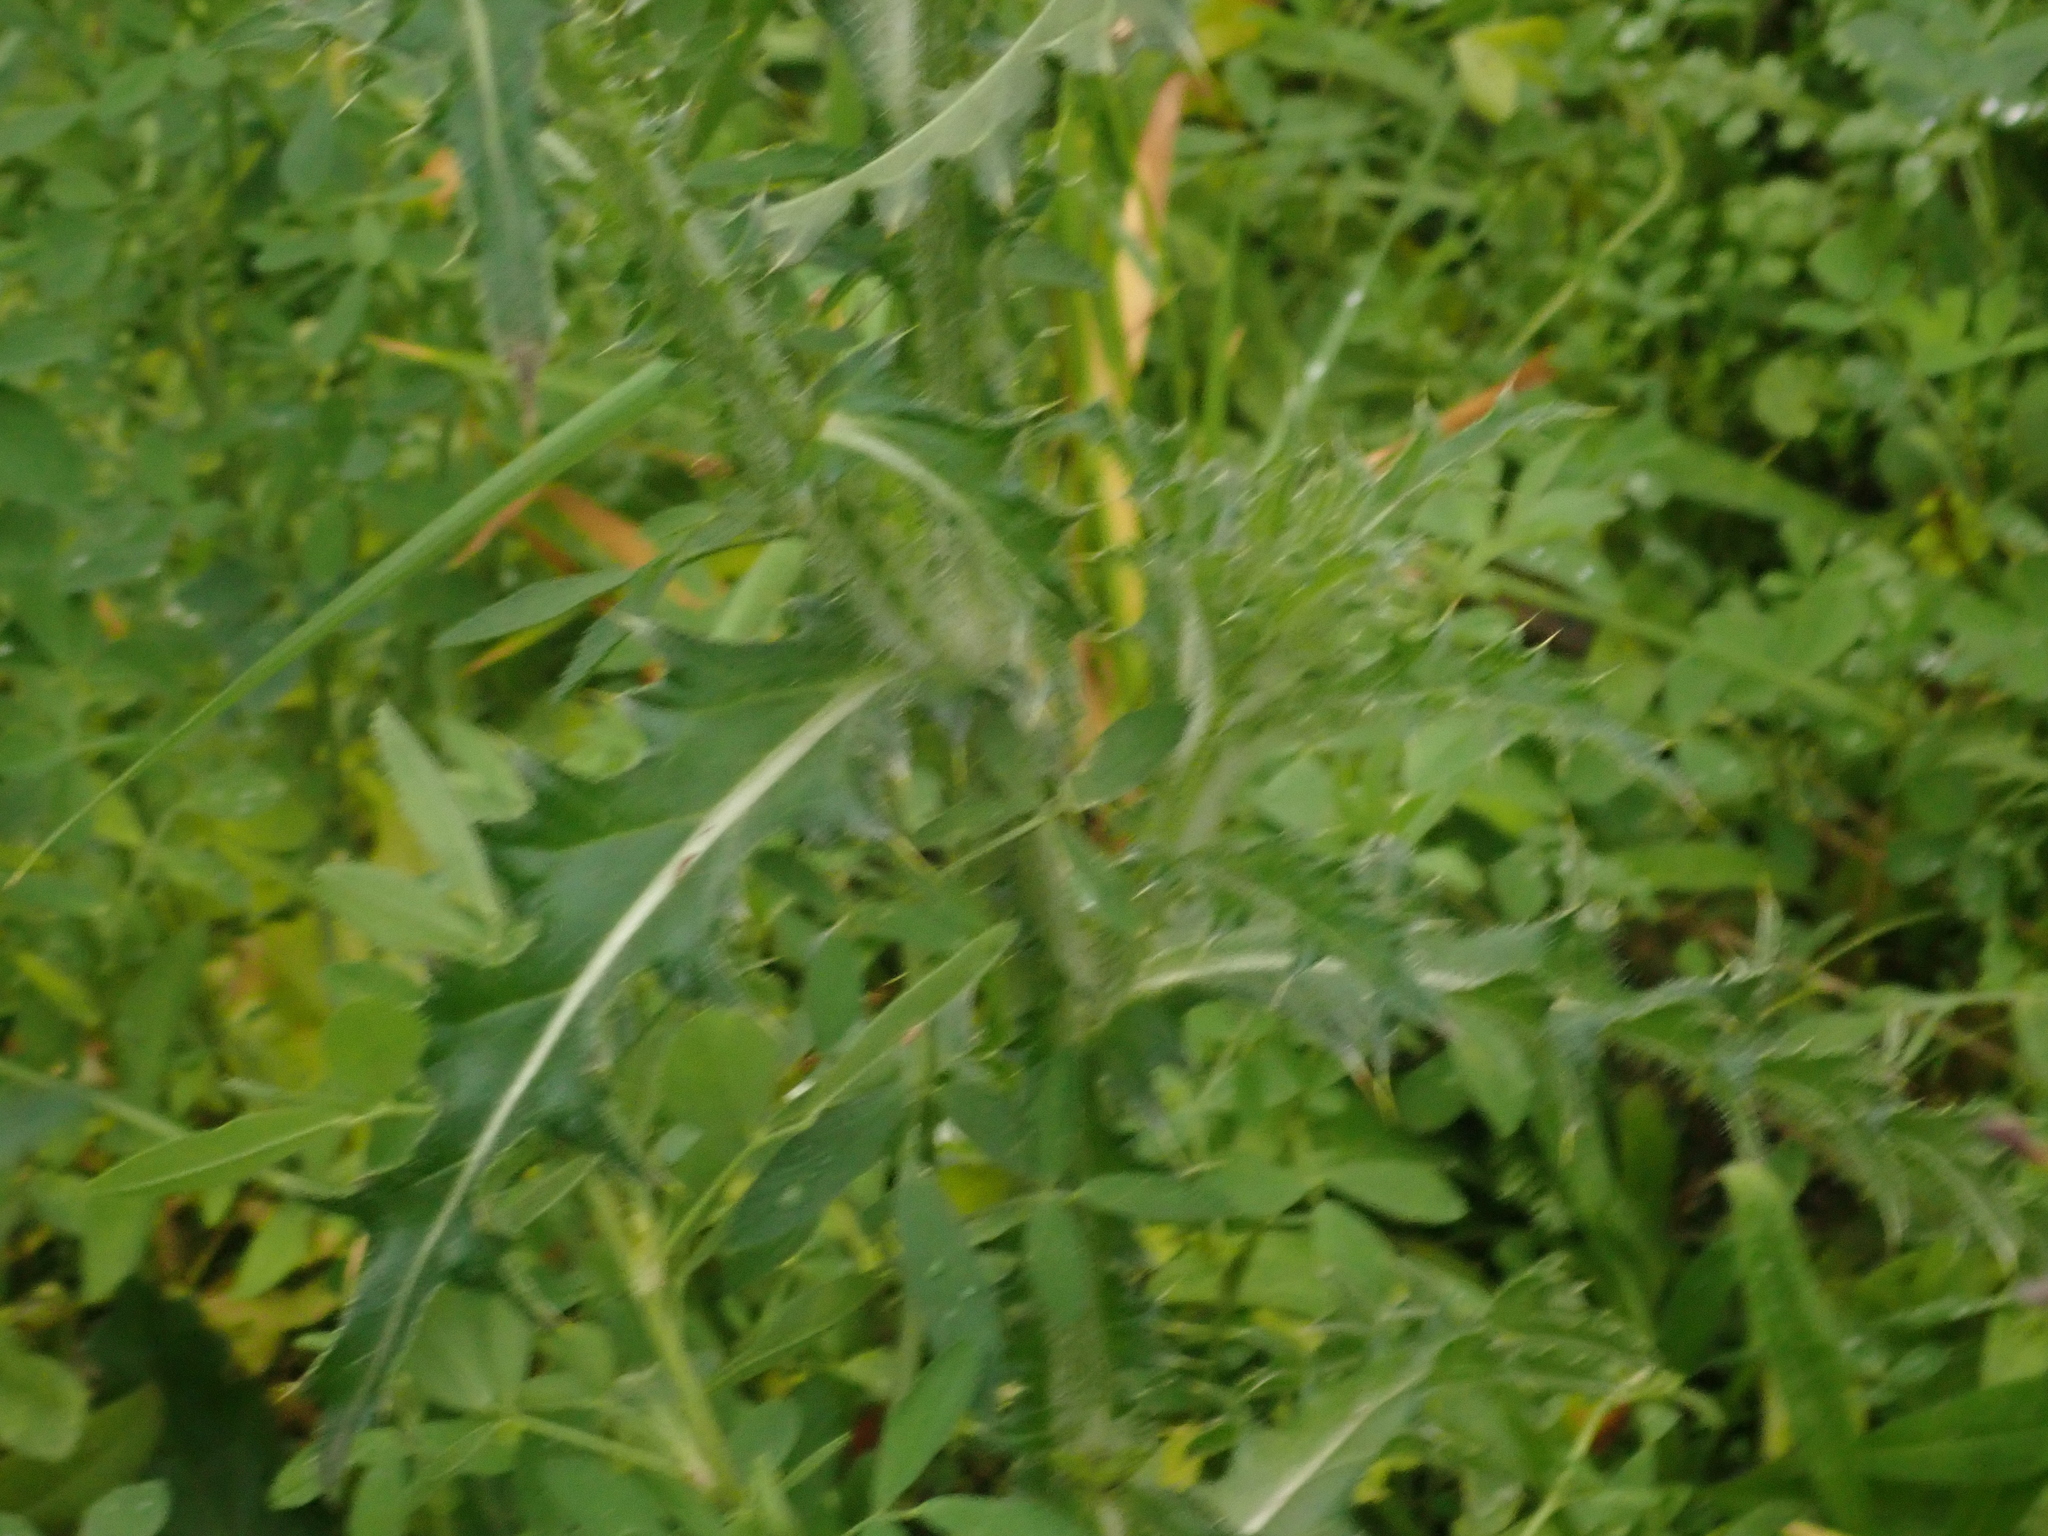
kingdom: Plantae
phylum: Tracheophyta
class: Magnoliopsida
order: Asterales
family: Asteraceae
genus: Carduus
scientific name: Carduus nutans
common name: Musk thistle
